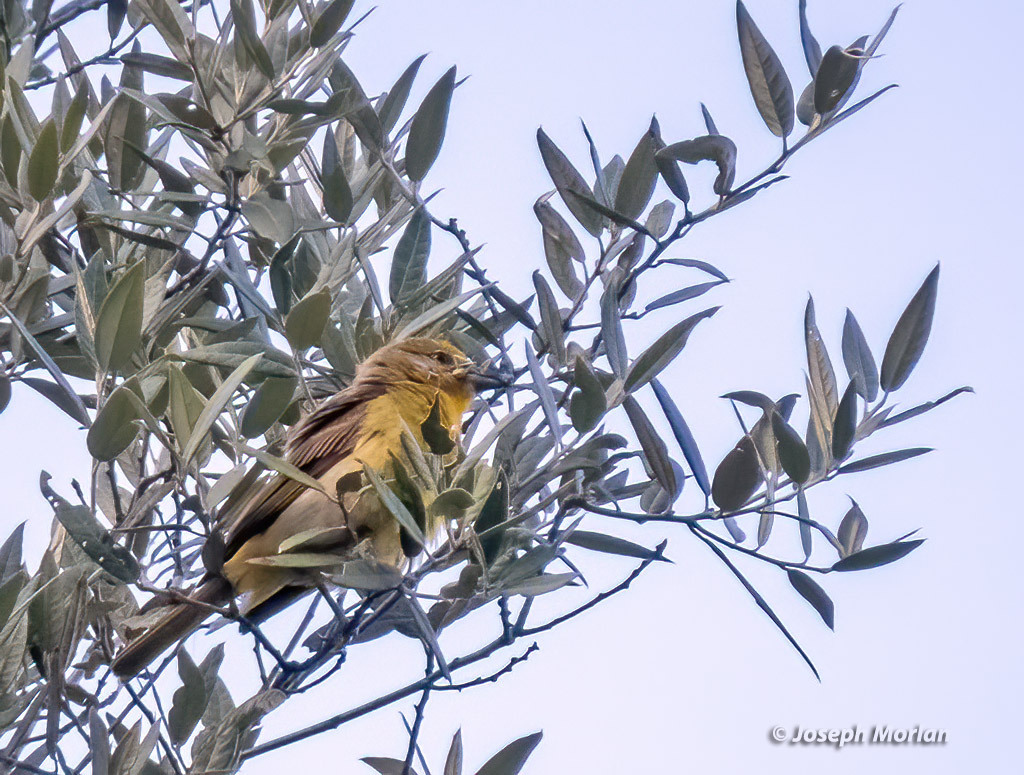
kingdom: Animalia
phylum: Chordata
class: Aves
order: Passeriformes
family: Cardinalidae
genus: Piranga
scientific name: Piranga flava
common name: Red tanager
